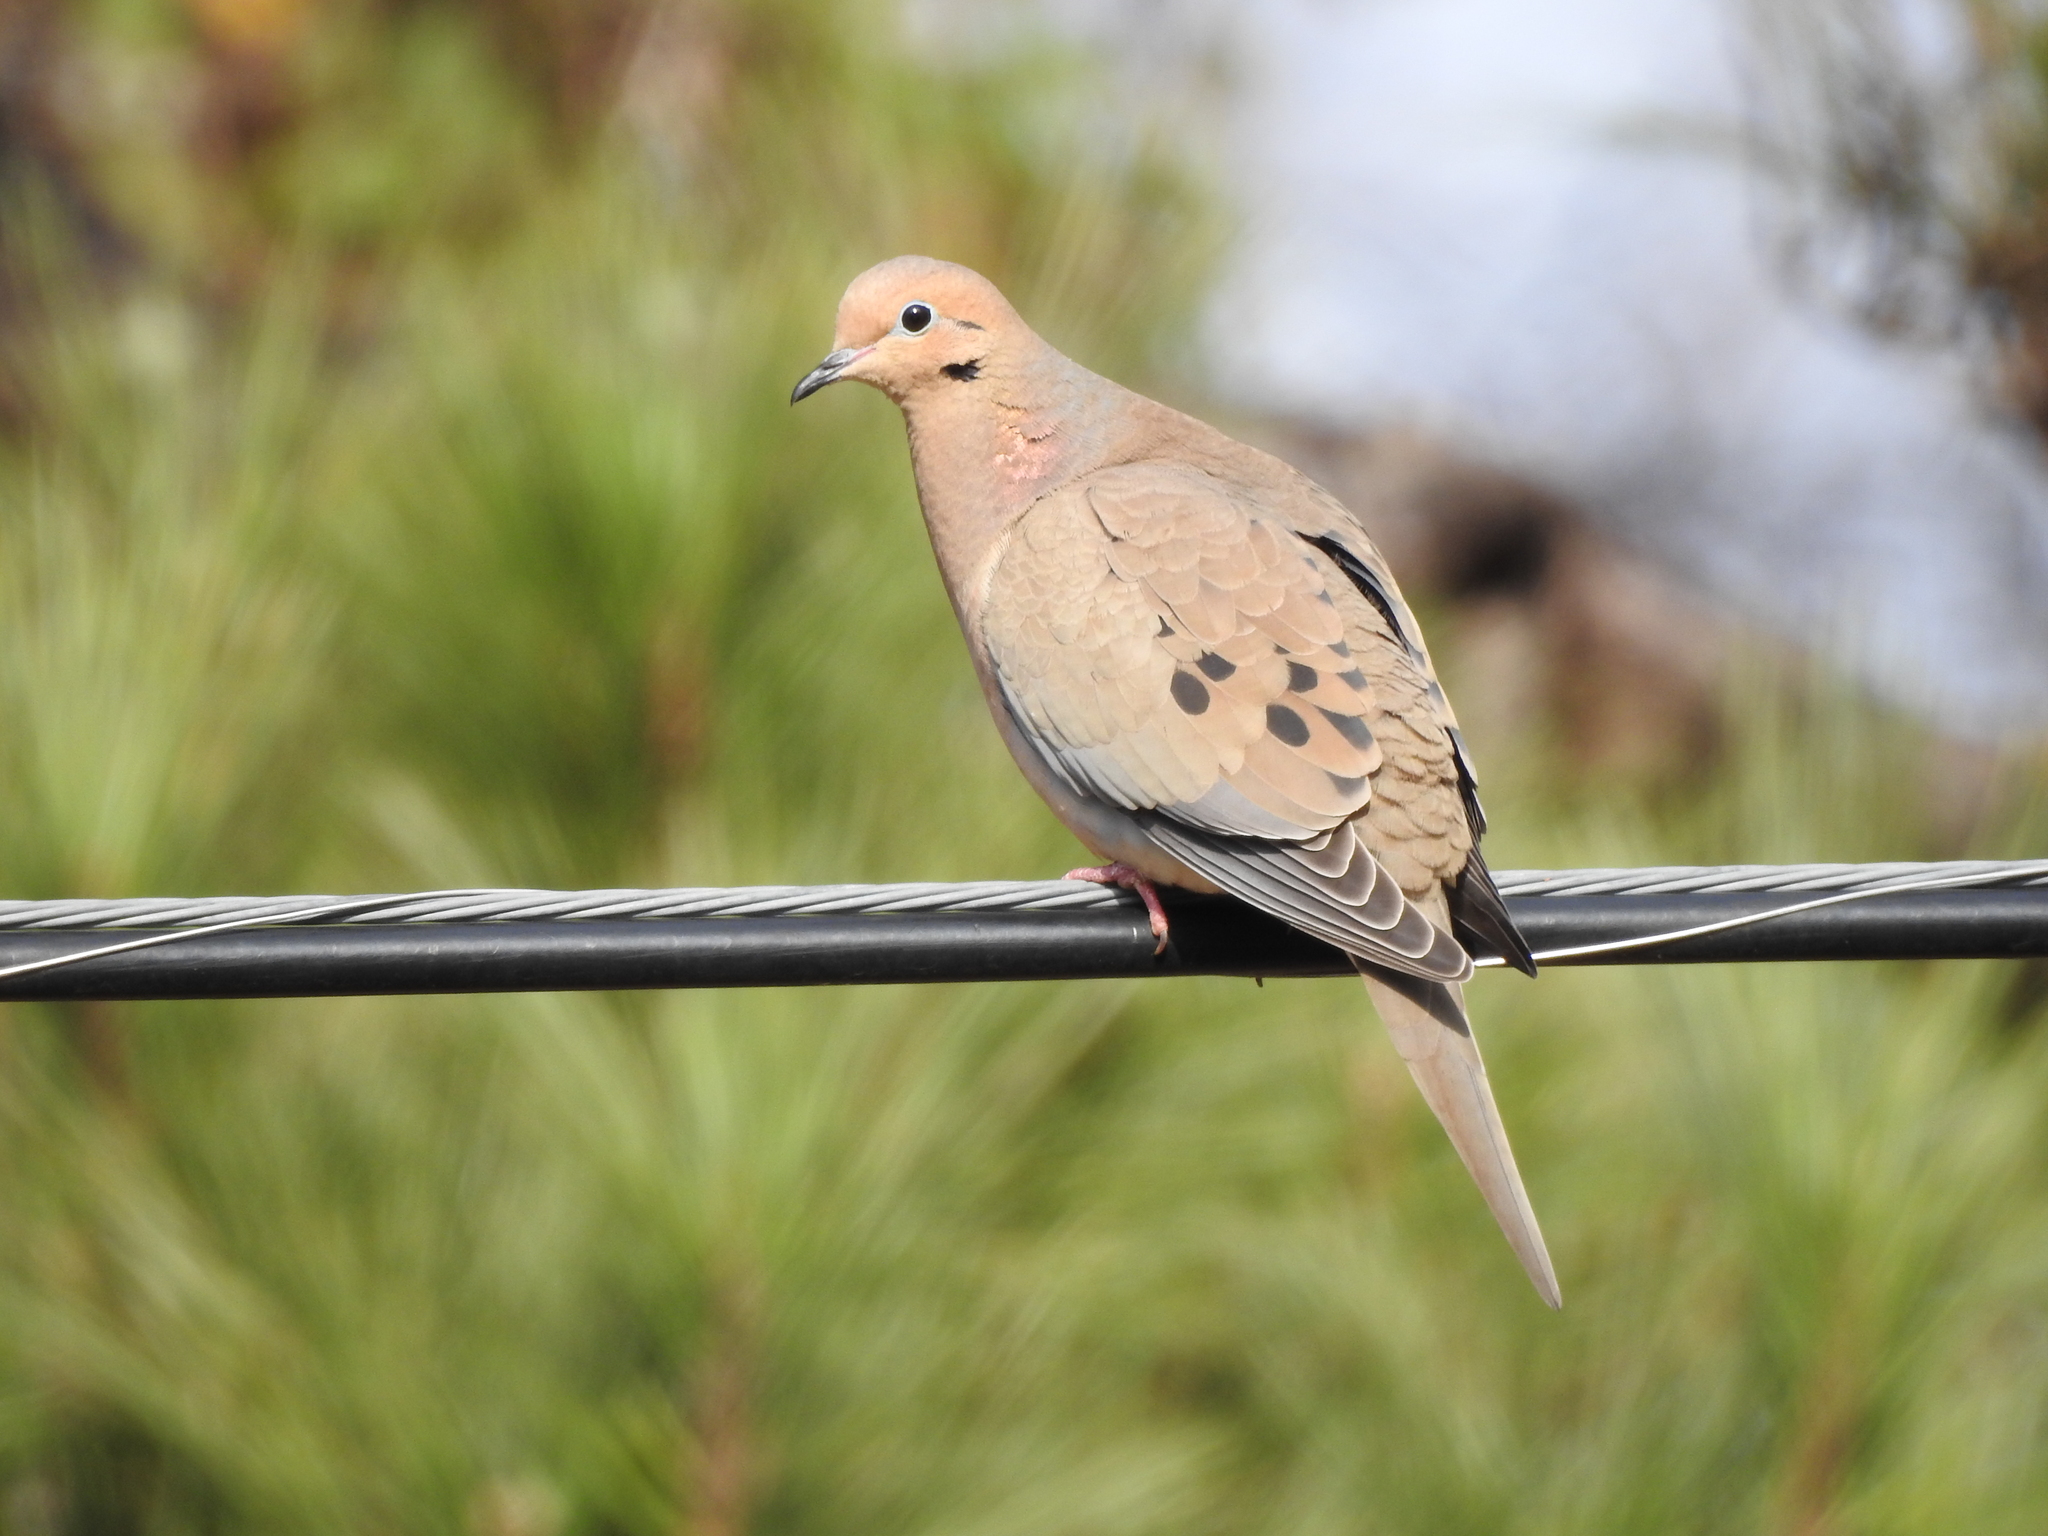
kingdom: Animalia
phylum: Chordata
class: Aves
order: Columbiformes
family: Columbidae
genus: Zenaida
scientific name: Zenaida macroura
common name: Mourning dove
